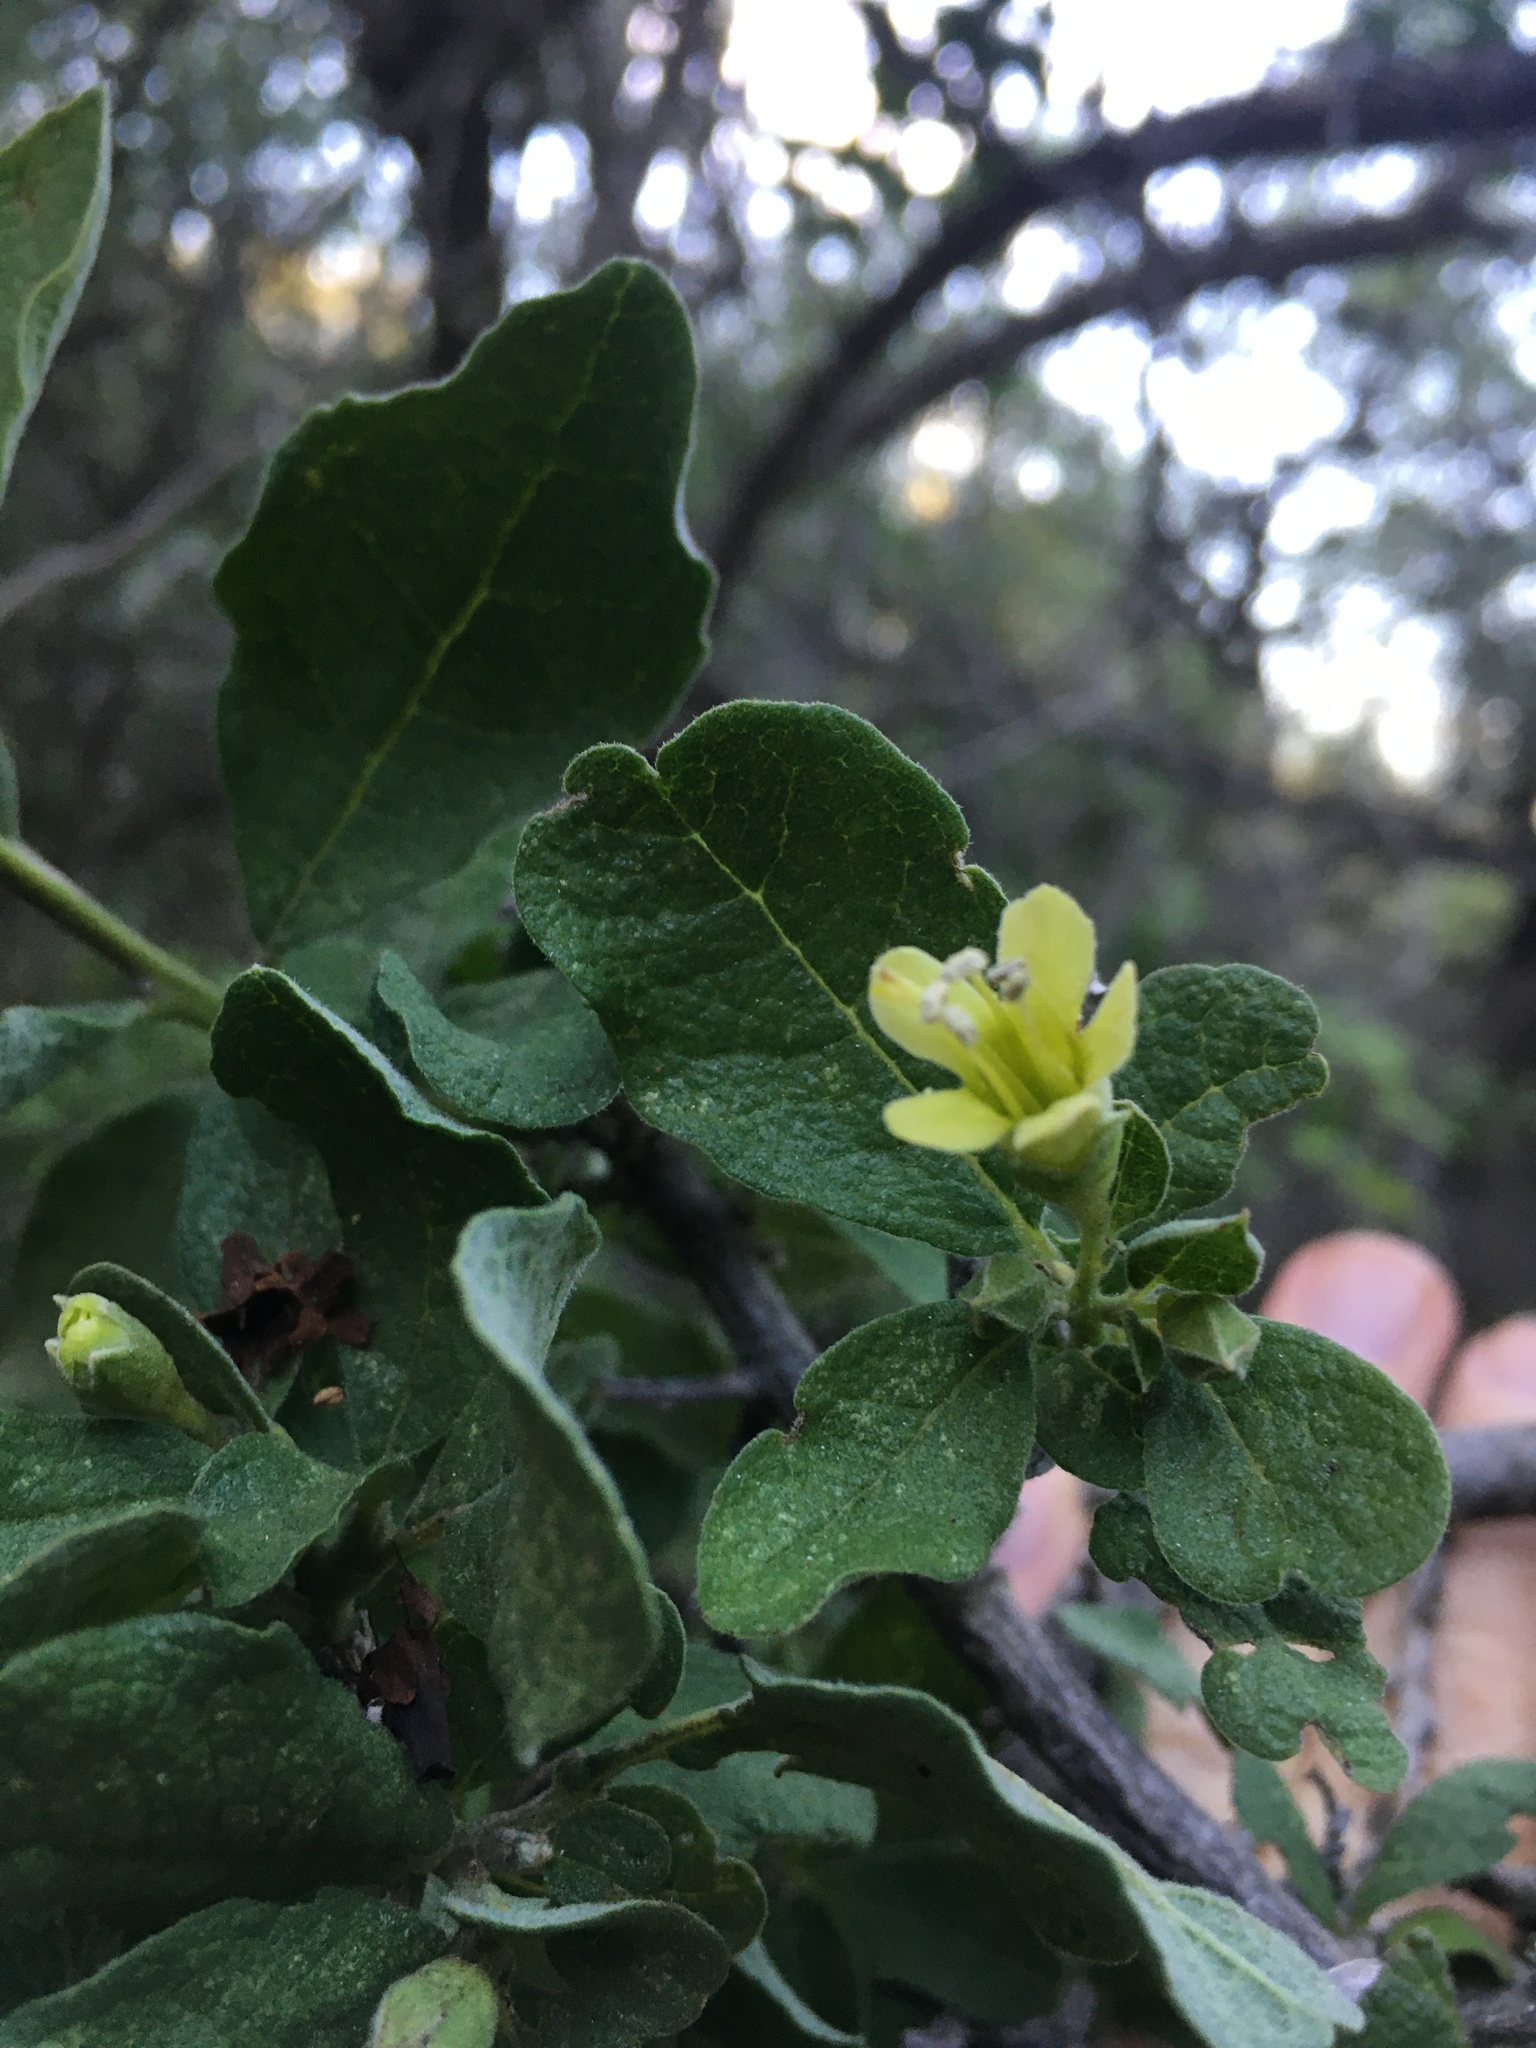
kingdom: Plantae
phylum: Tracheophyta
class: Magnoliopsida
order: Boraginales
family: Ehretiaceae
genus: Bourreria
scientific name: Bourreria sonorae
